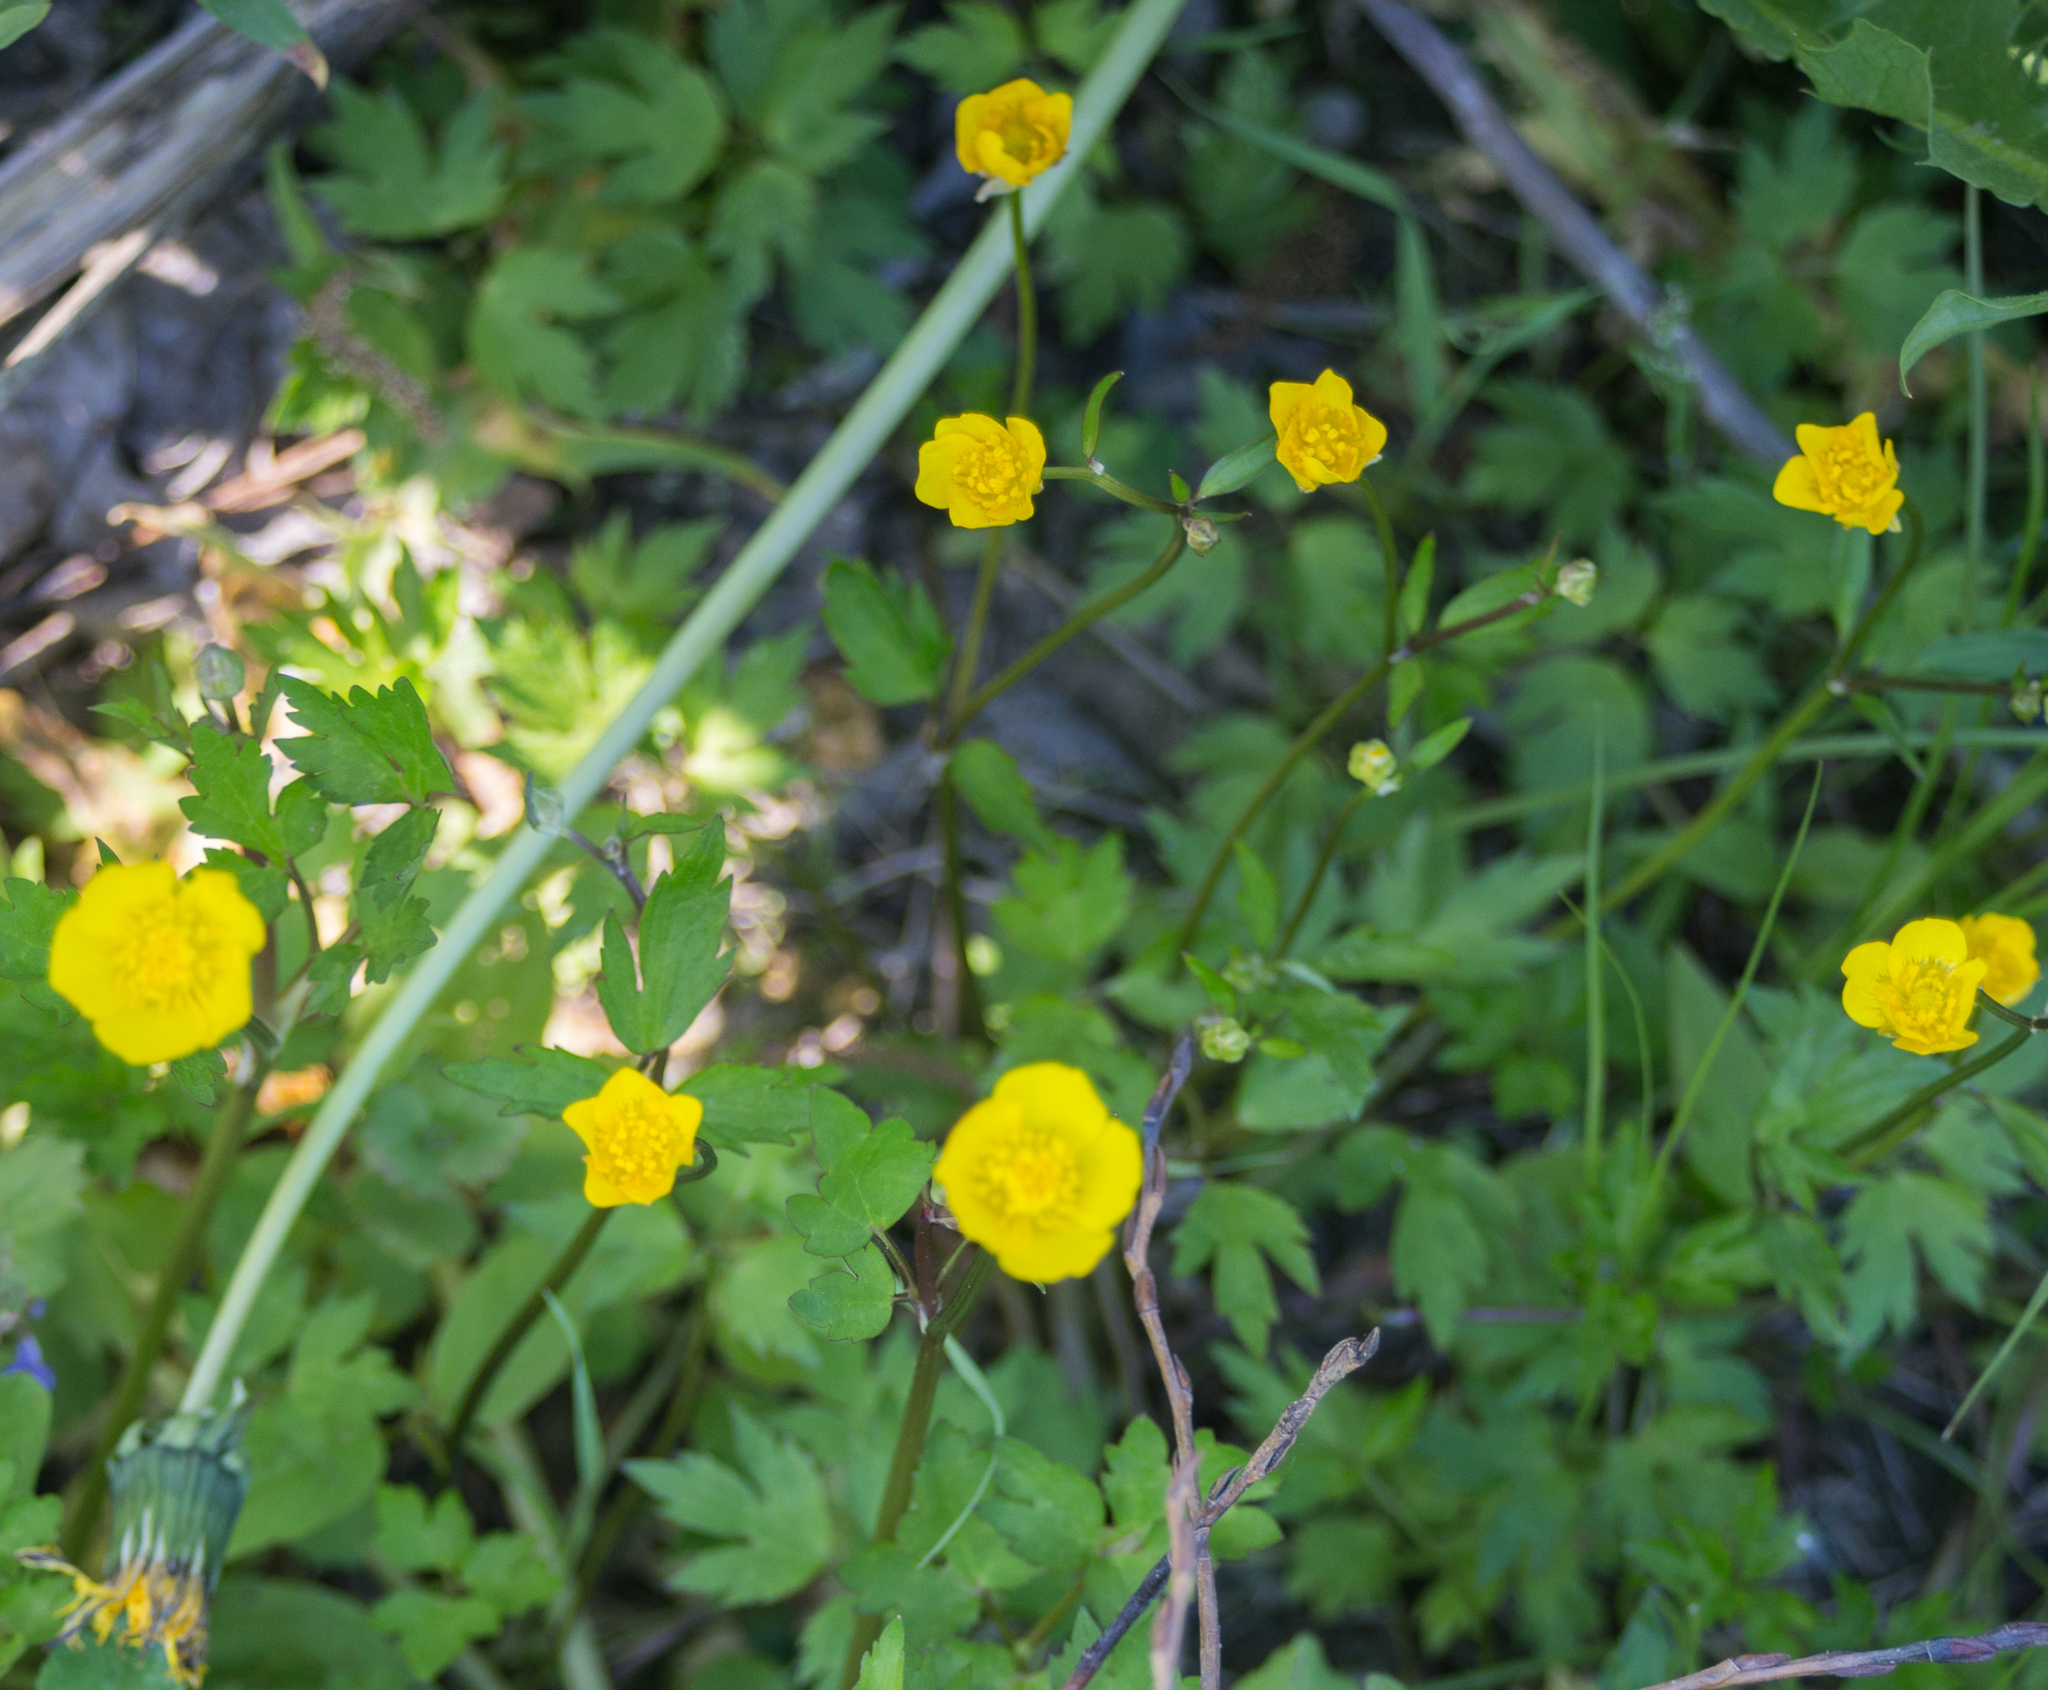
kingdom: Plantae
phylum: Tracheophyta
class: Magnoliopsida
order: Ranunculales
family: Ranunculaceae
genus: Ranunculus
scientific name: Ranunculus repens
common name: Creeping buttercup
